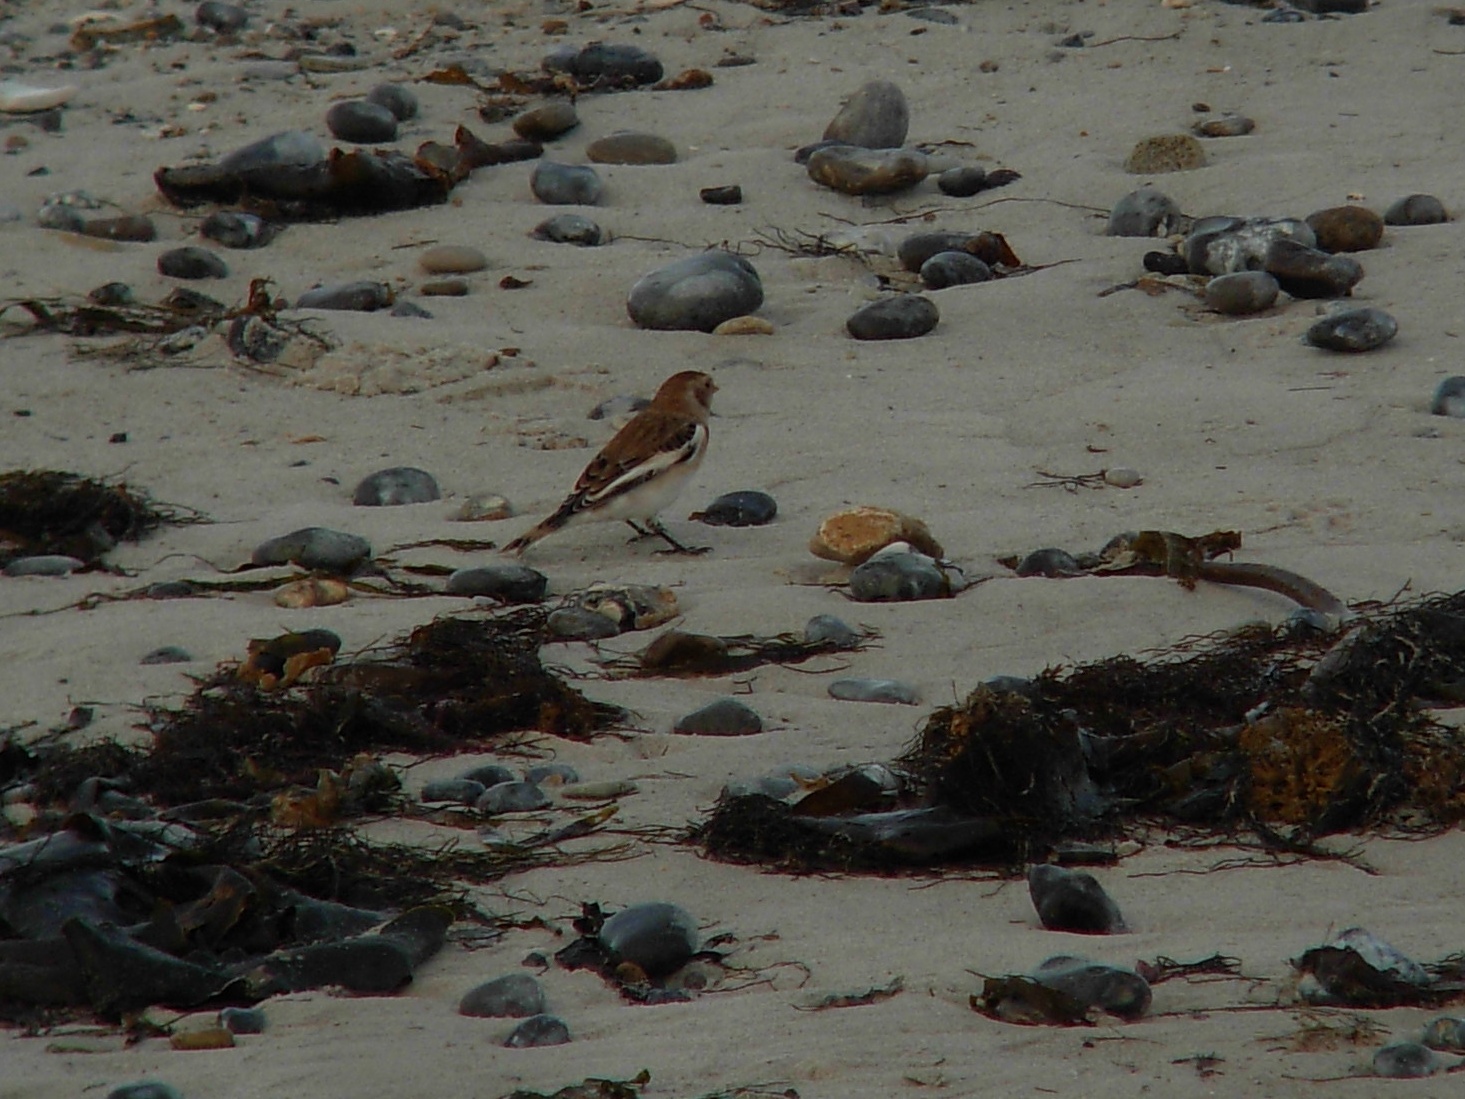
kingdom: Animalia
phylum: Chordata
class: Aves
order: Passeriformes
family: Calcariidae
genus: Plectrophenax
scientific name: Plectrophenax nivalis
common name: Snow bunting
